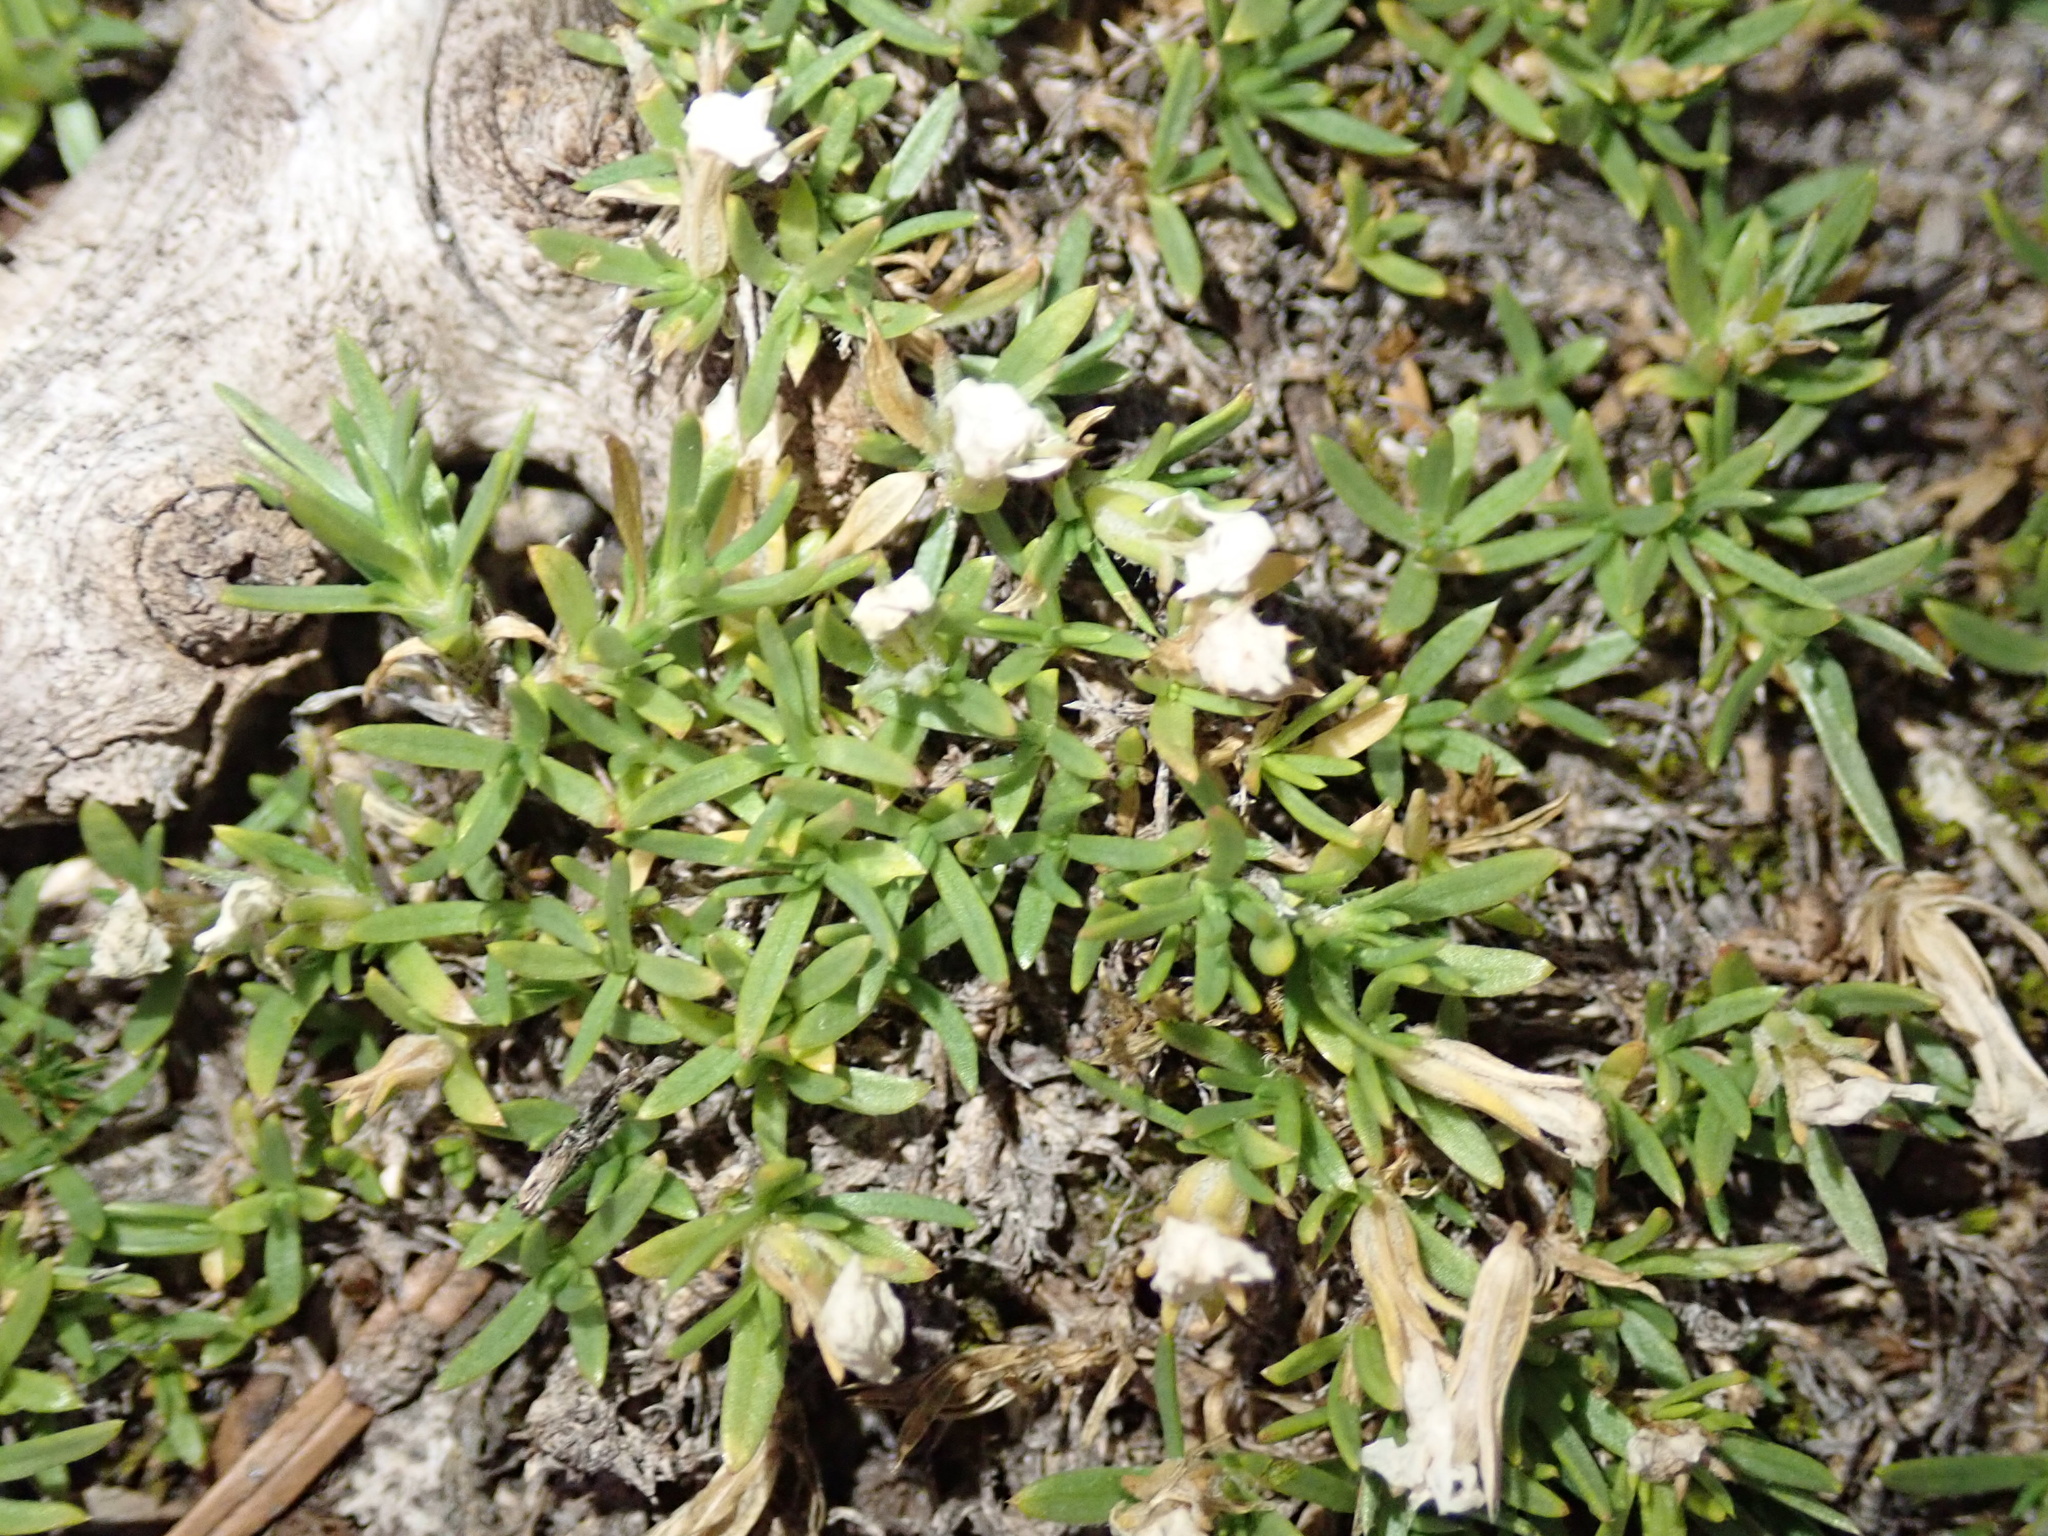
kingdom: Plantae
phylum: Tracheophyta
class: Magnoliopsida
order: Ericales
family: Polemoniaceae
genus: Phlox
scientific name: Phlox diffusa
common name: Mat phlox
